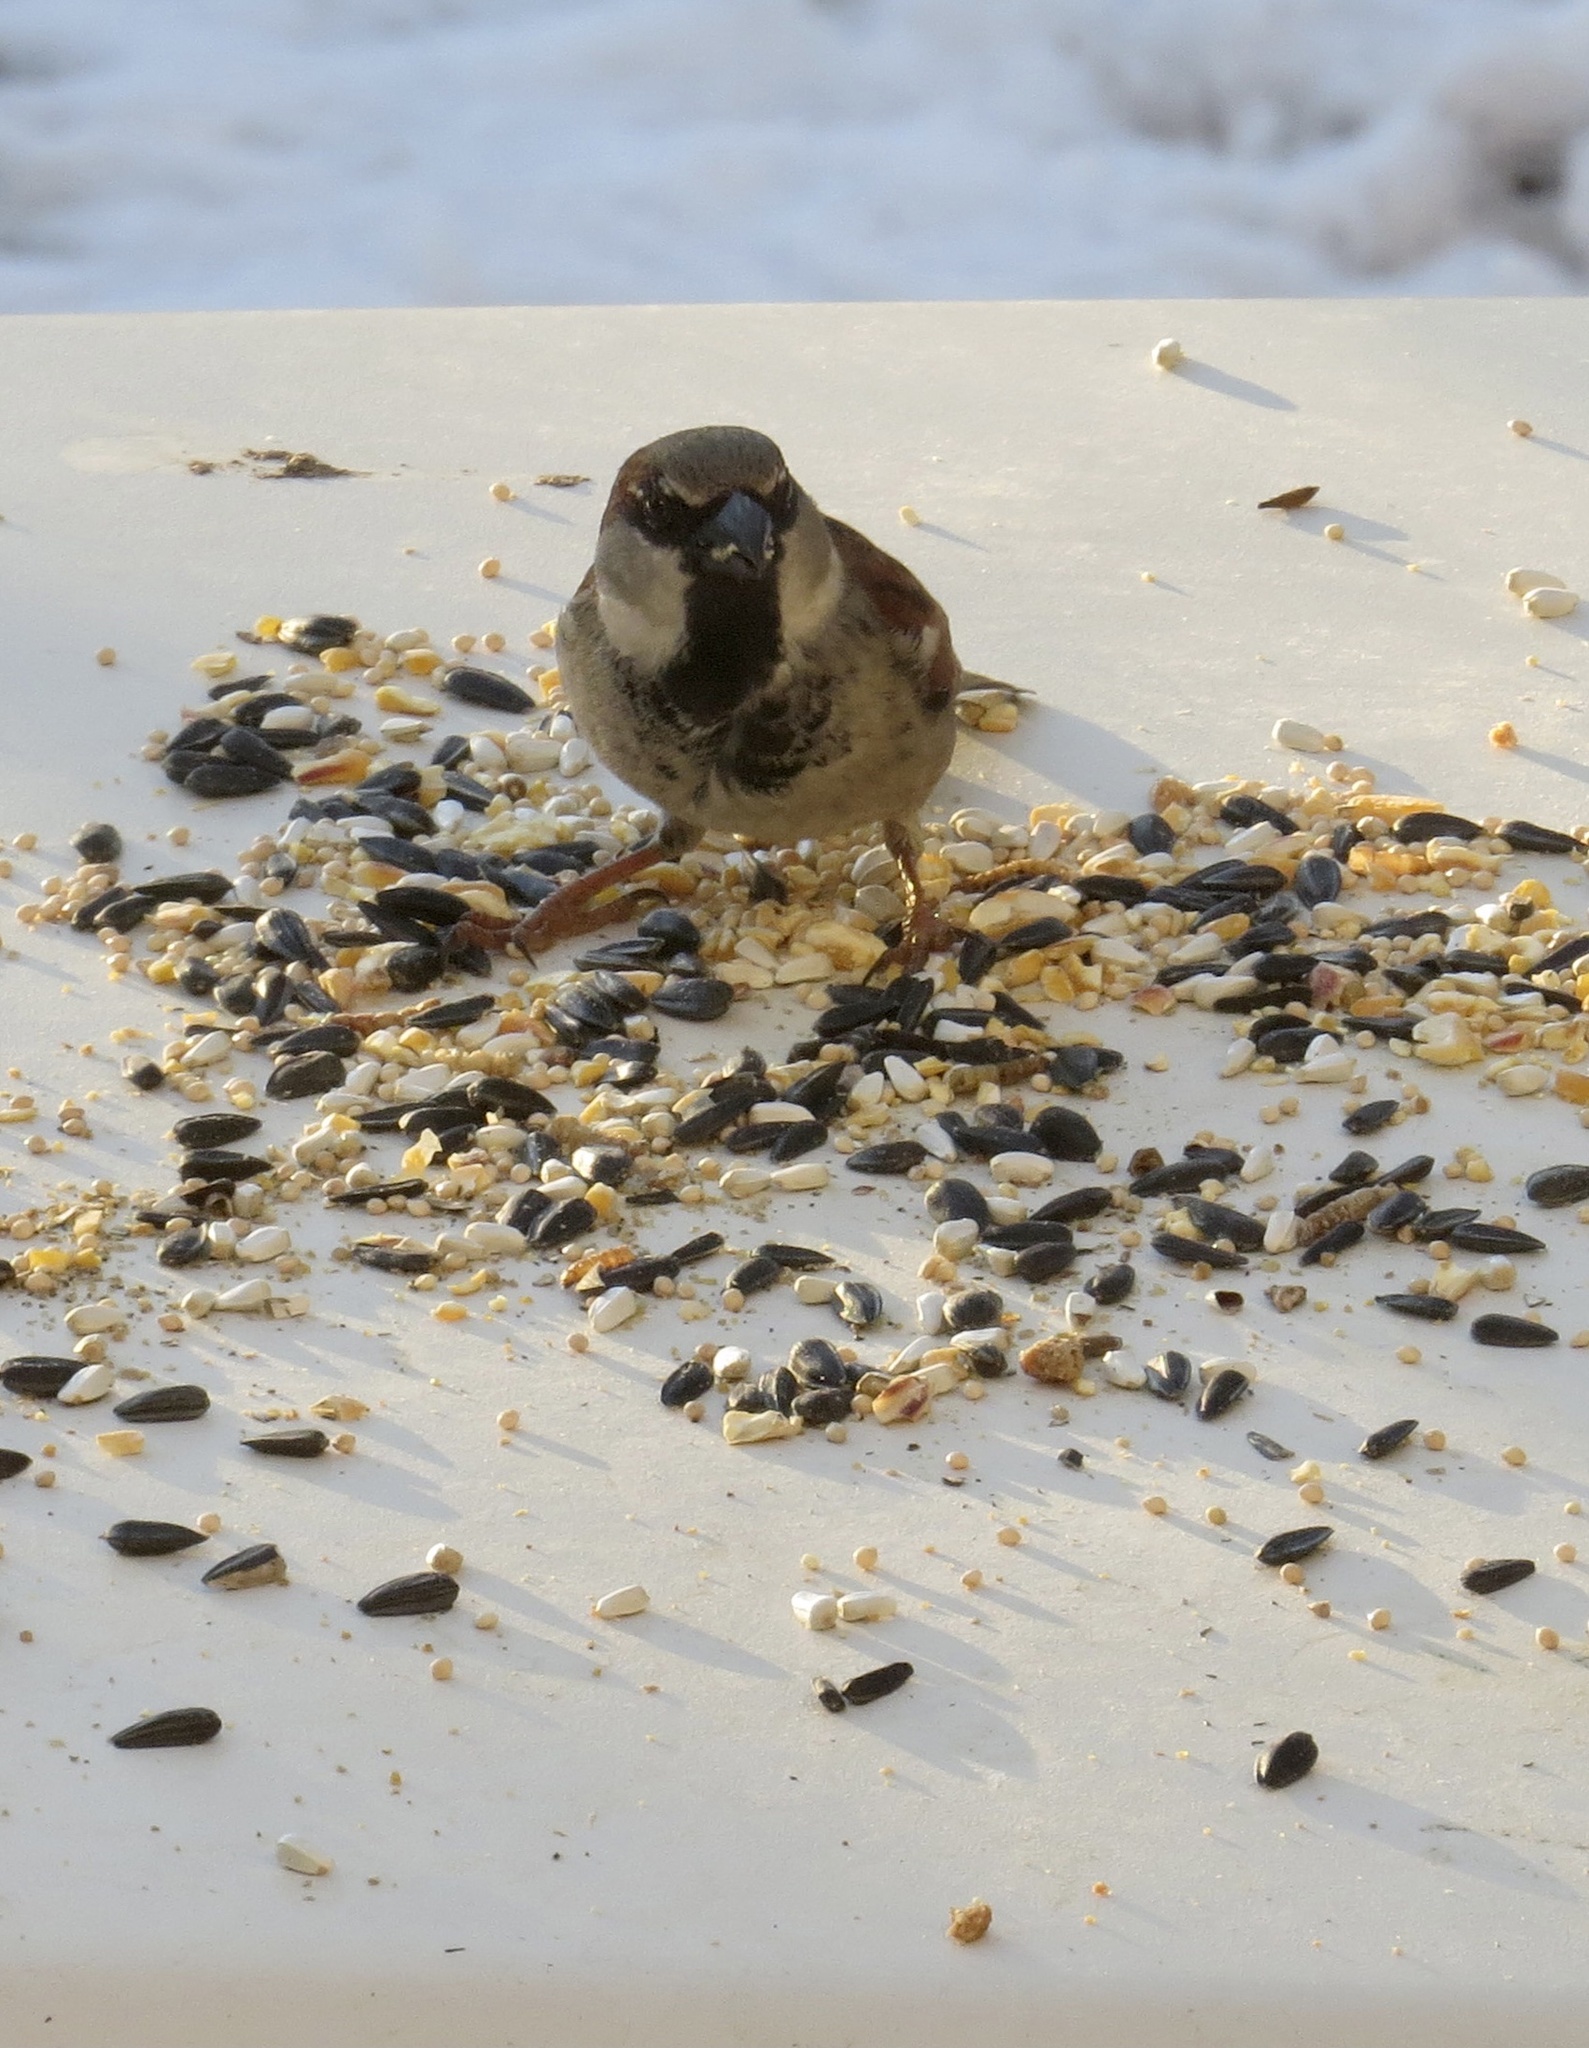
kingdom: Animalia
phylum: Chordata
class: Aves
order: Passeriformes
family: Passeridae
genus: Passer
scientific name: Passer domesticus
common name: House sparrow
